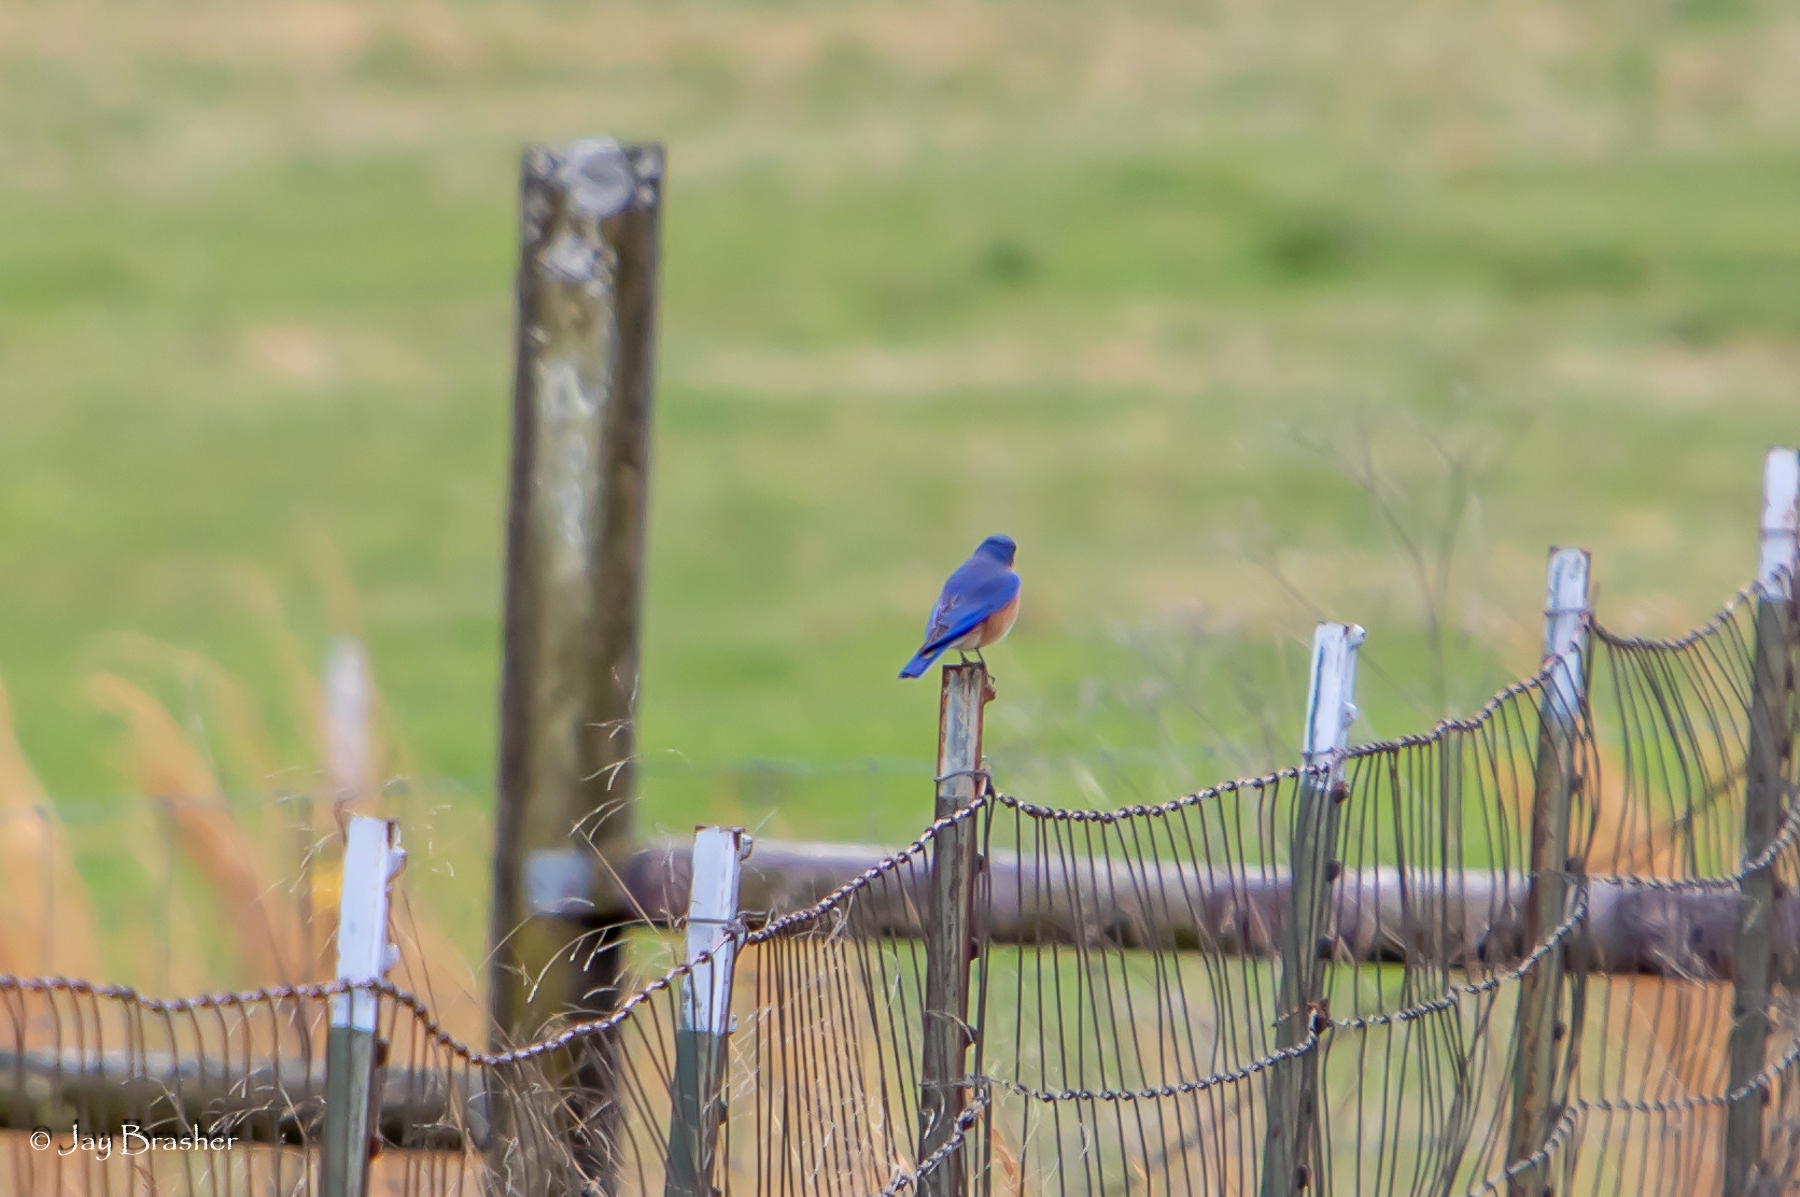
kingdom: Animalia
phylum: Chordata
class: Aves
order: Passeriformes
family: Turdidae
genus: Sialia
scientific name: Sialia sialis
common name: Eastern bluebird
